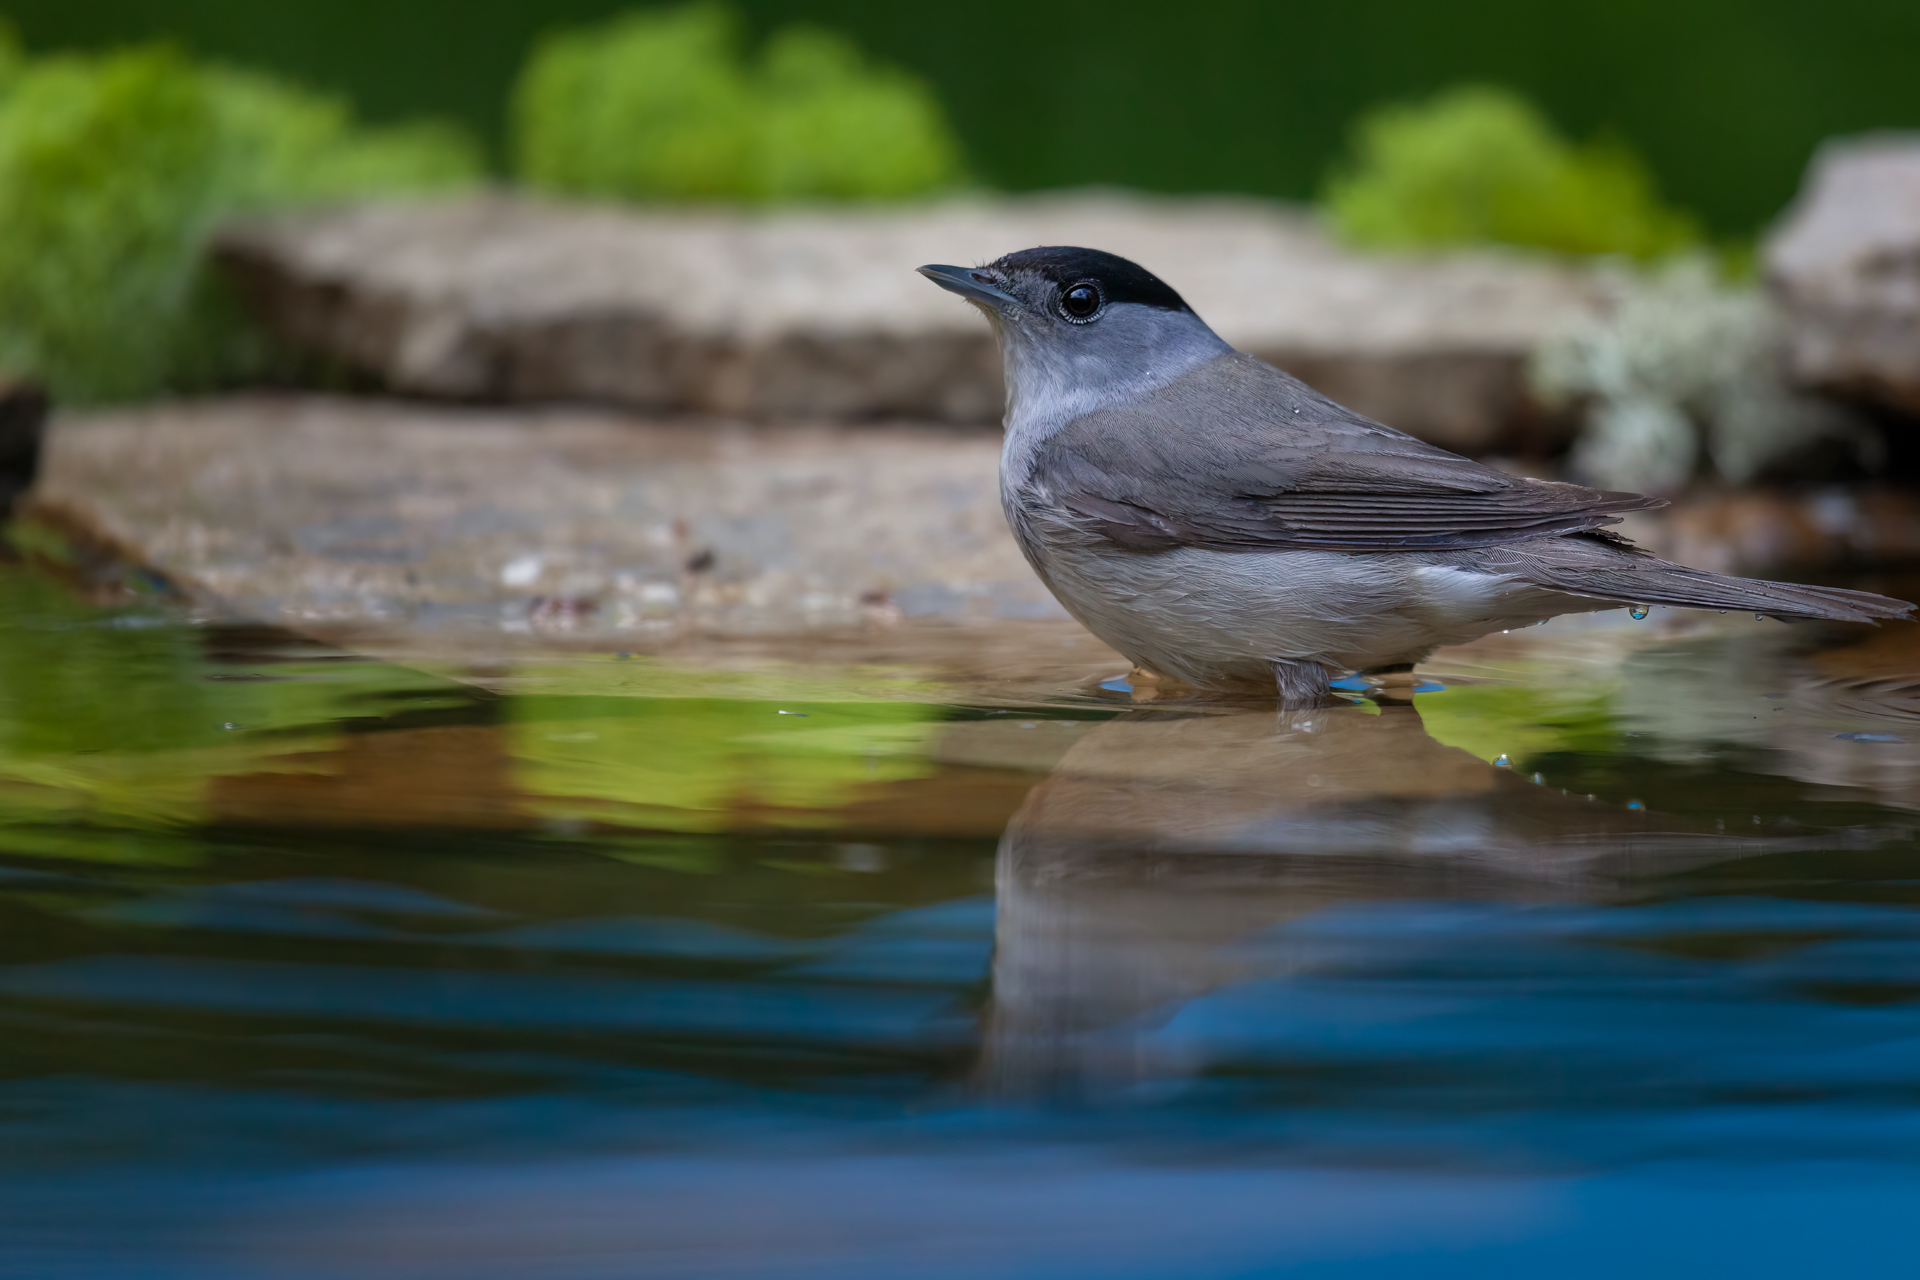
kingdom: Animalia
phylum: Chordata
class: Aves
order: Passeriformes
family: Sylviidae
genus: Sylvia
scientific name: Sylvia atricapilla
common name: Eurasian blackcap
